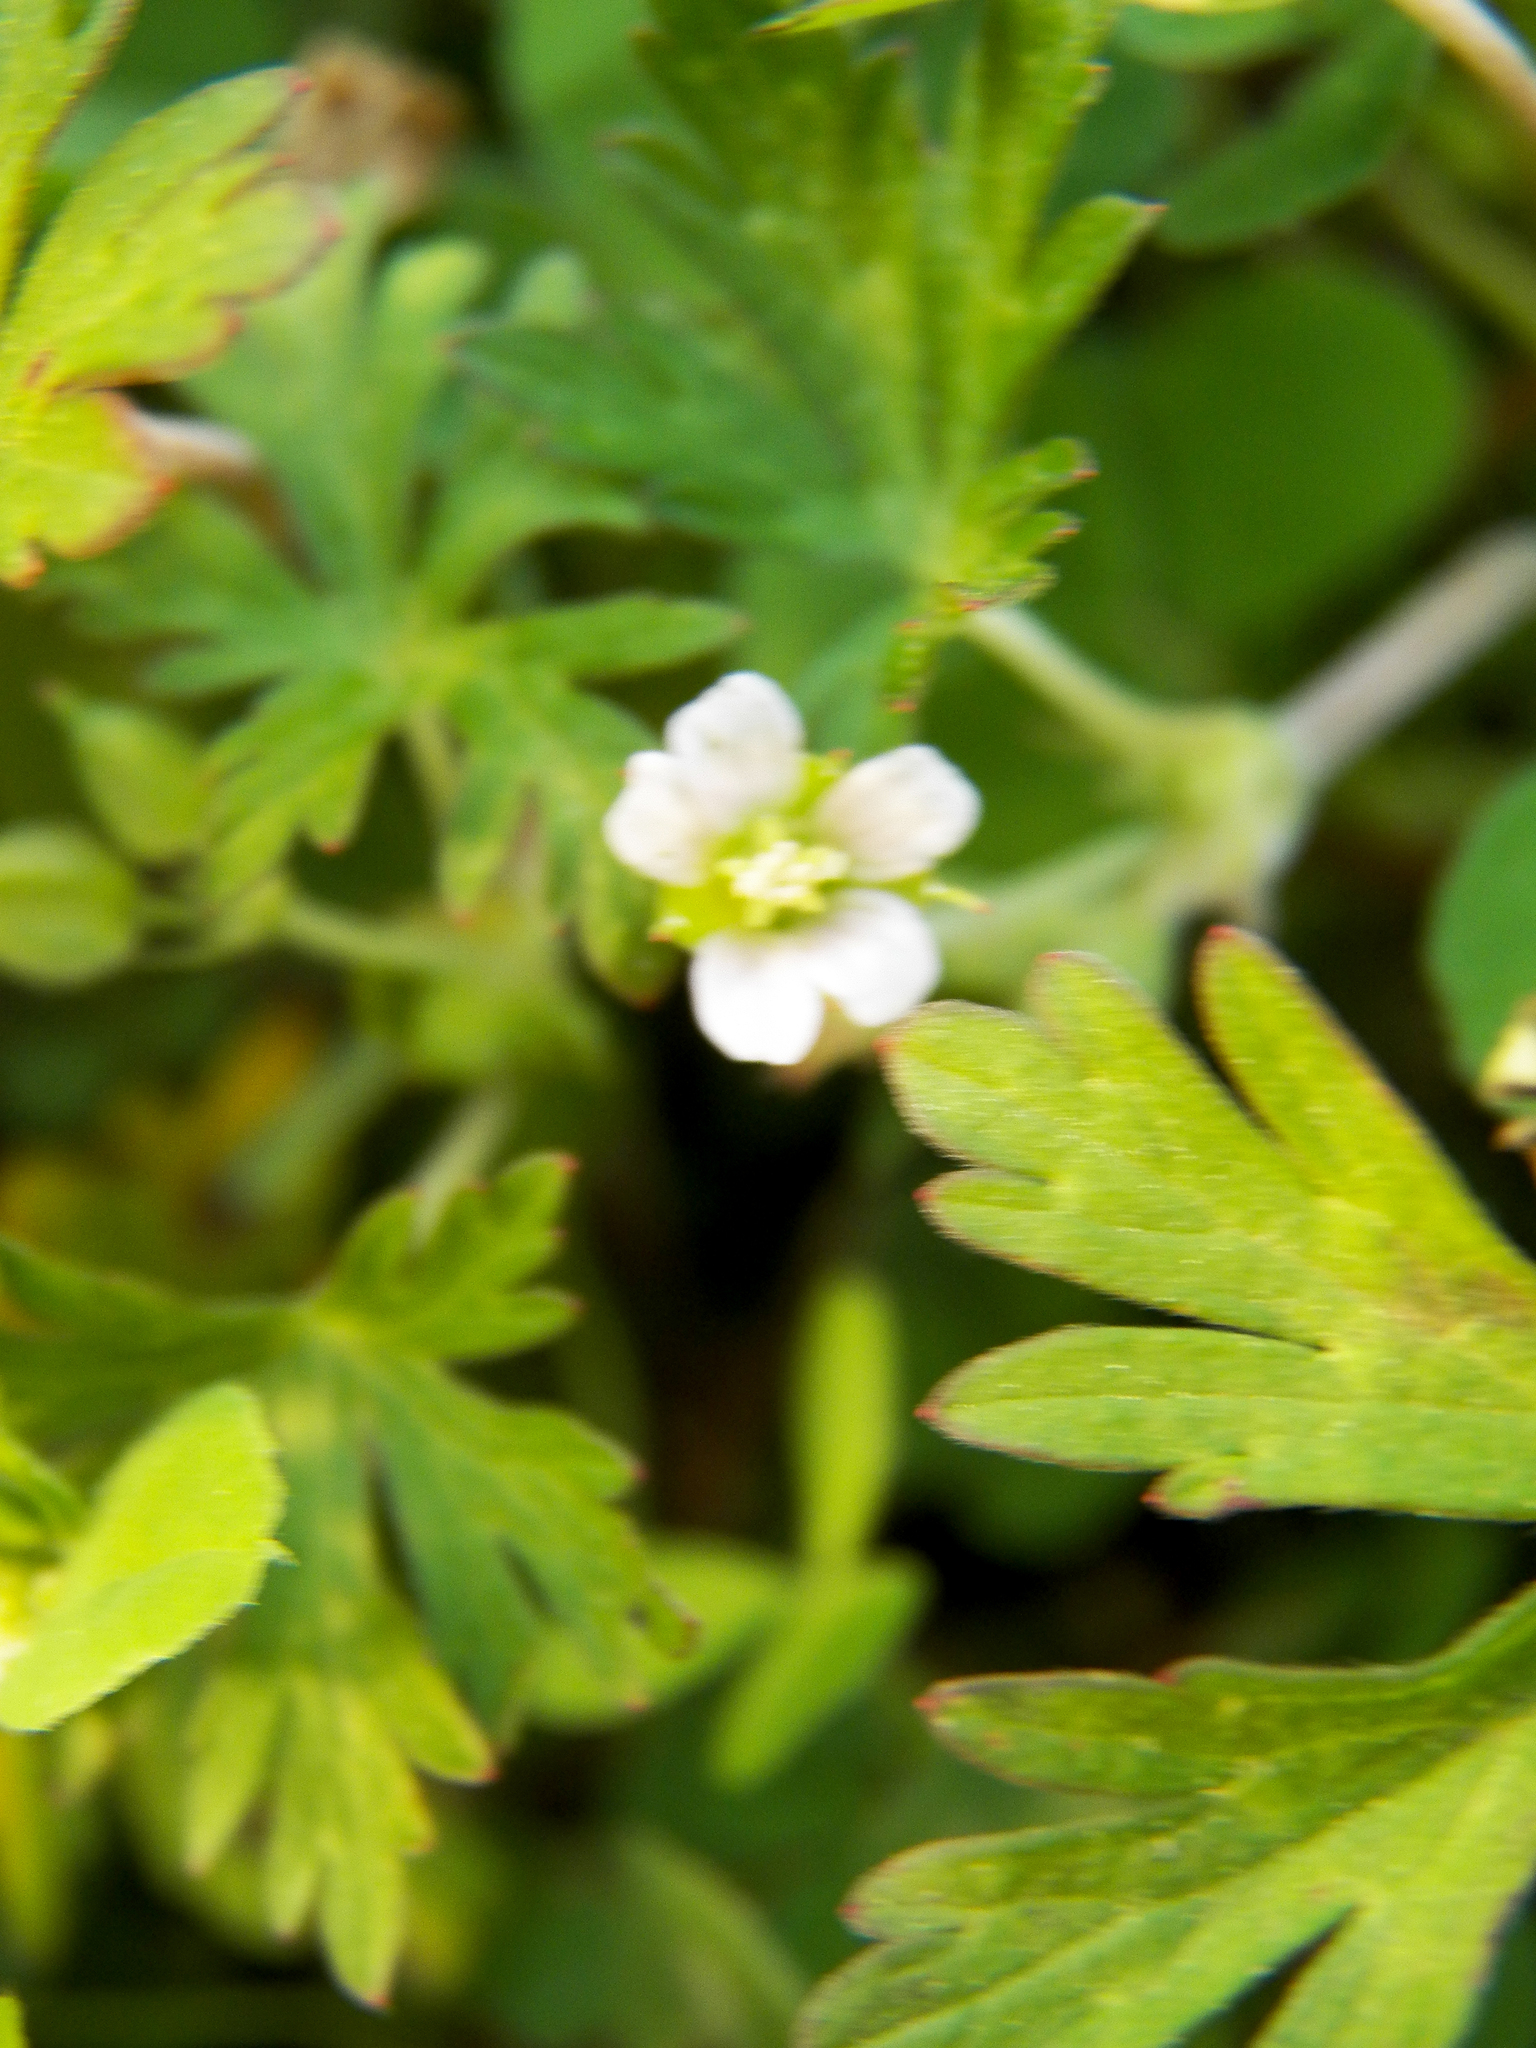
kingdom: Plantae
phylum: Tracheophyta
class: Magnoliopsida
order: Geraniales
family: Geraniaceae
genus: Geranium
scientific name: Geranium carolinianum
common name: Carolina crane's-bill
